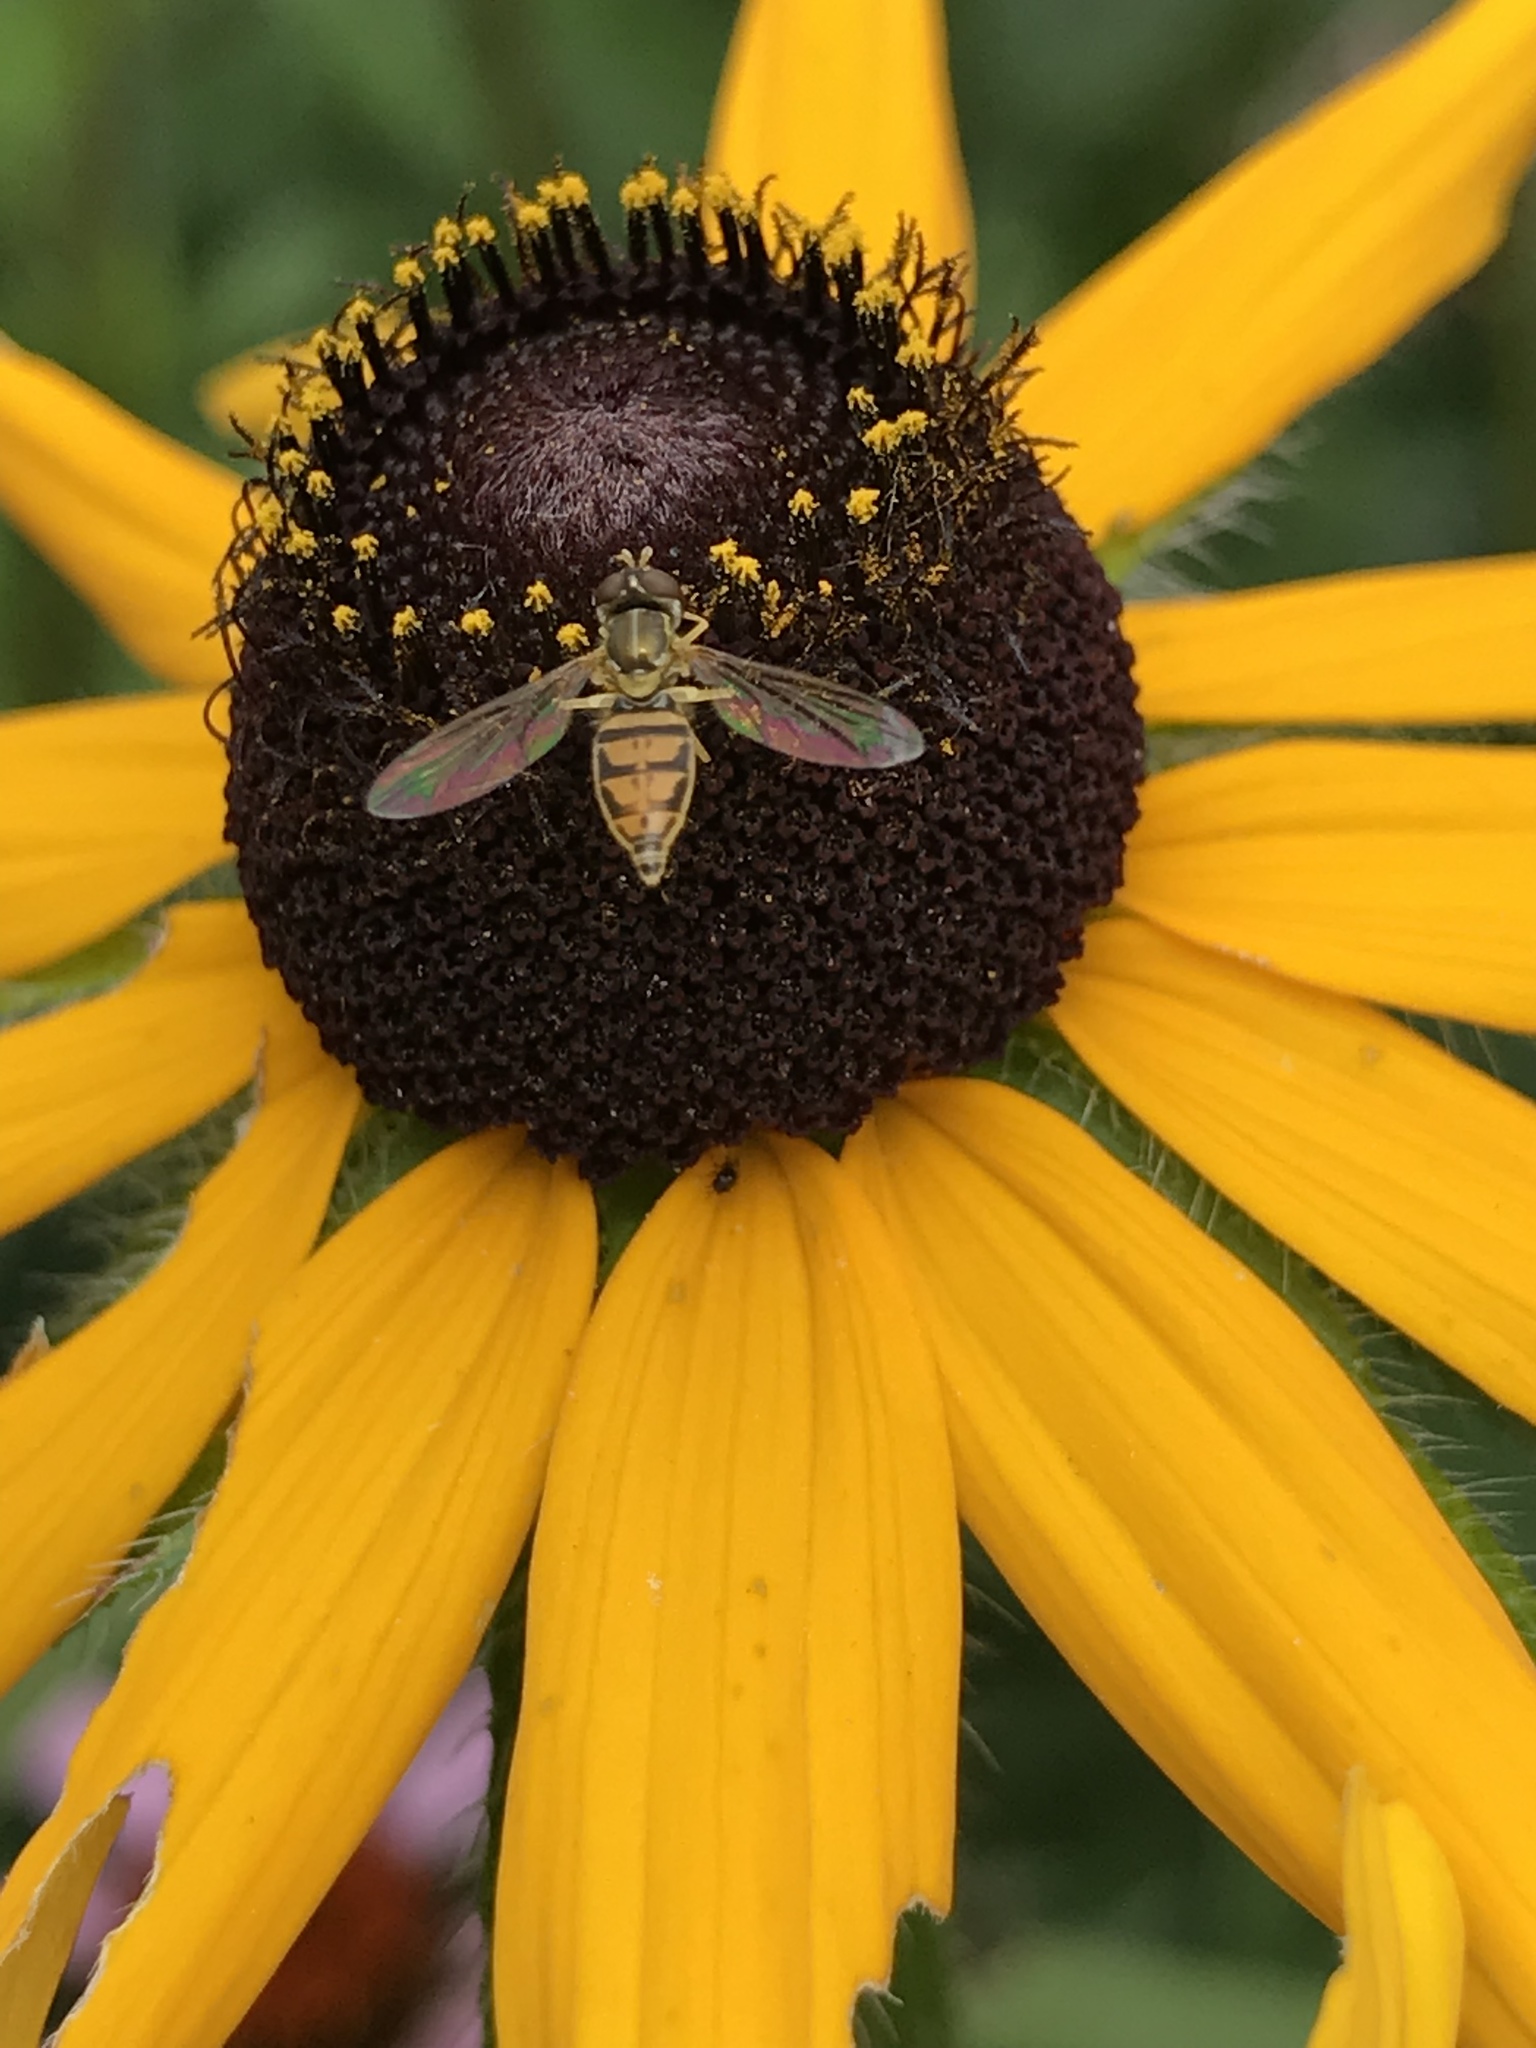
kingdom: Animalia
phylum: Arthropoda
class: Insecta
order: Diptera
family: Syrphidae
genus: Toxomerus
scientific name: Toxomerus marginatus
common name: Syrphid fly
